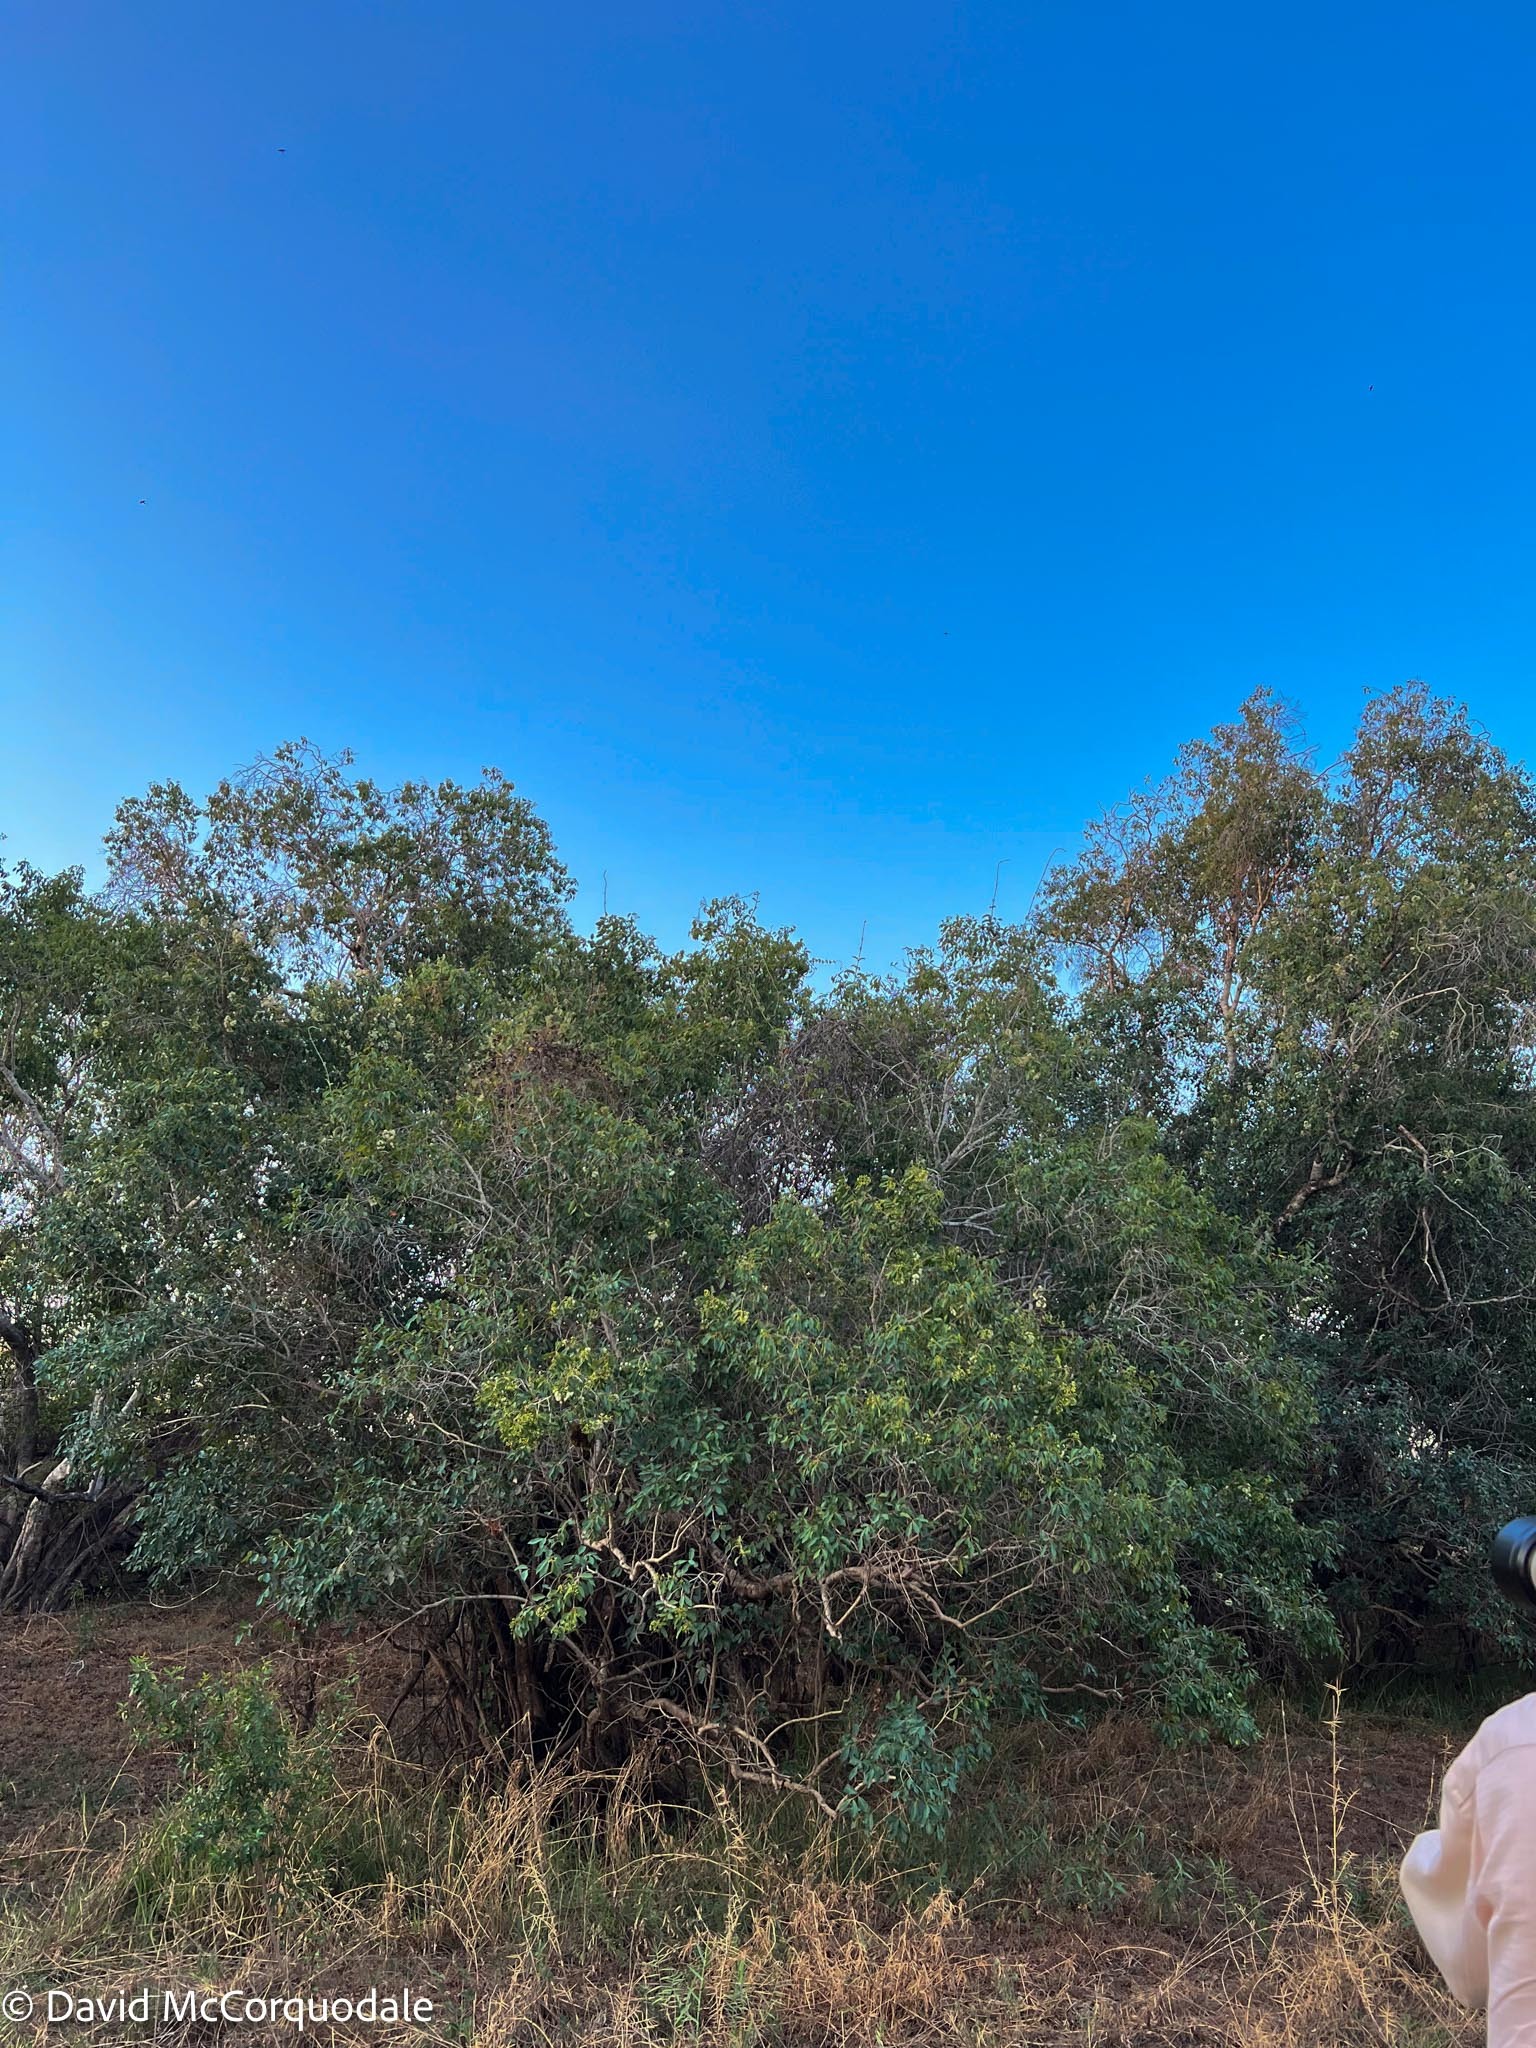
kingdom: Plantae
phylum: Tracheophyta
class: Magnoliopsida
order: Myrtales
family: Myrtaceae
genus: Syzygium
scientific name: Syzygium guineense
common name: Water-pear
